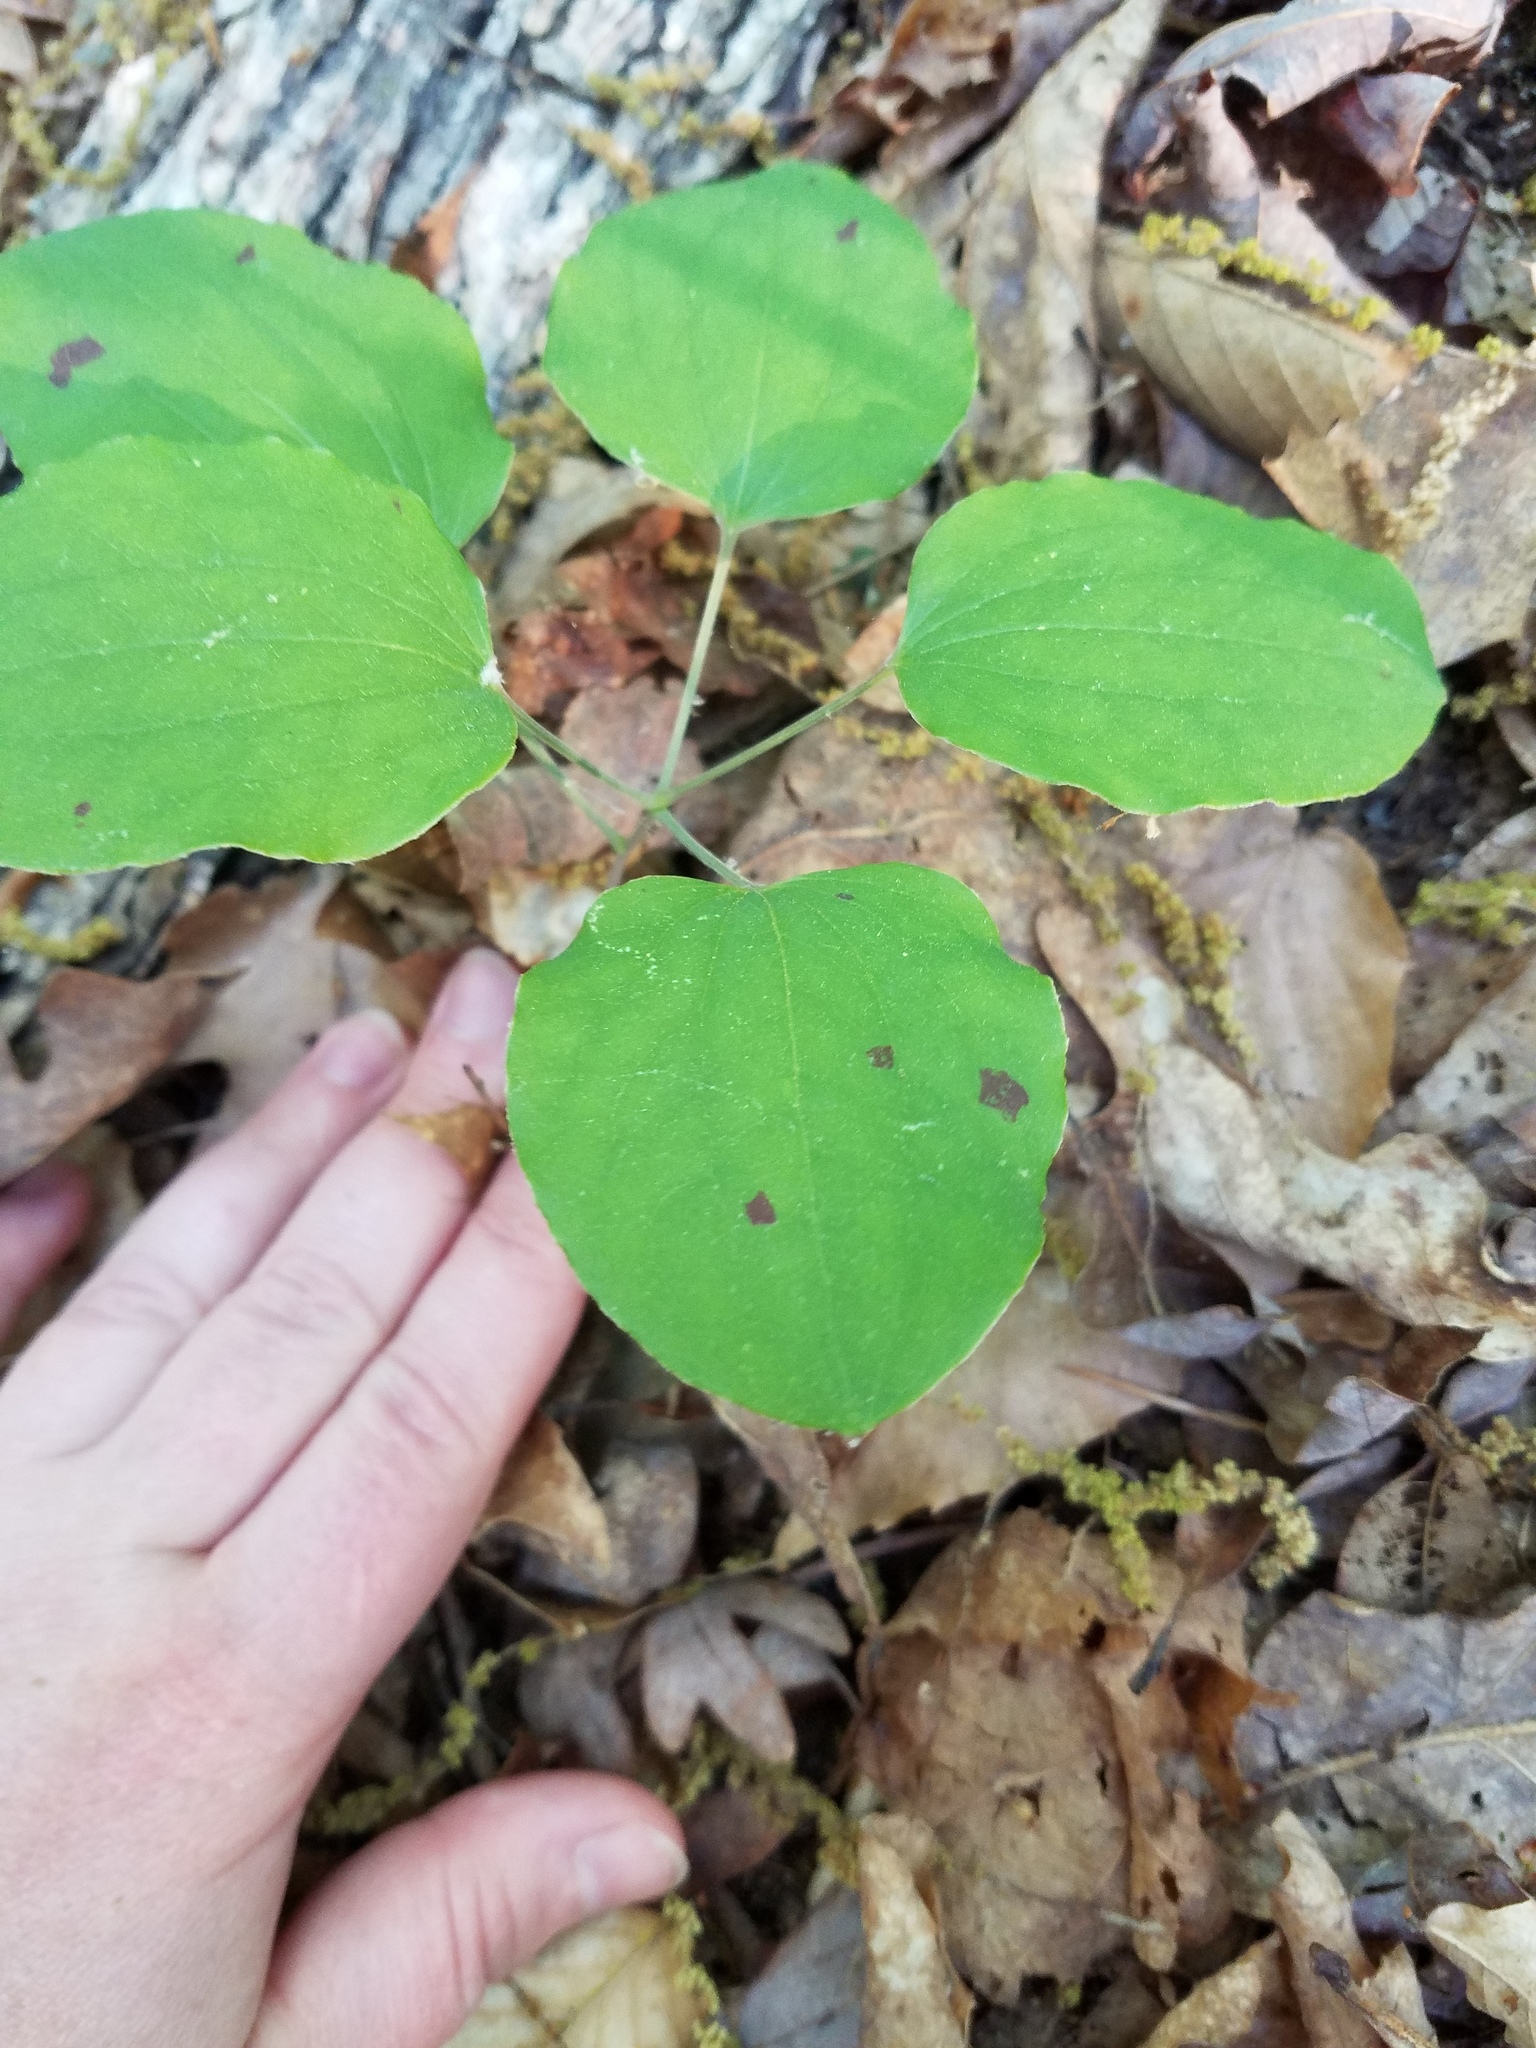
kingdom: Plantae
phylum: Tracheophyta
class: Liliopsida
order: Liliales
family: Smilacaceae
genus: Smilax
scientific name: Smilax
